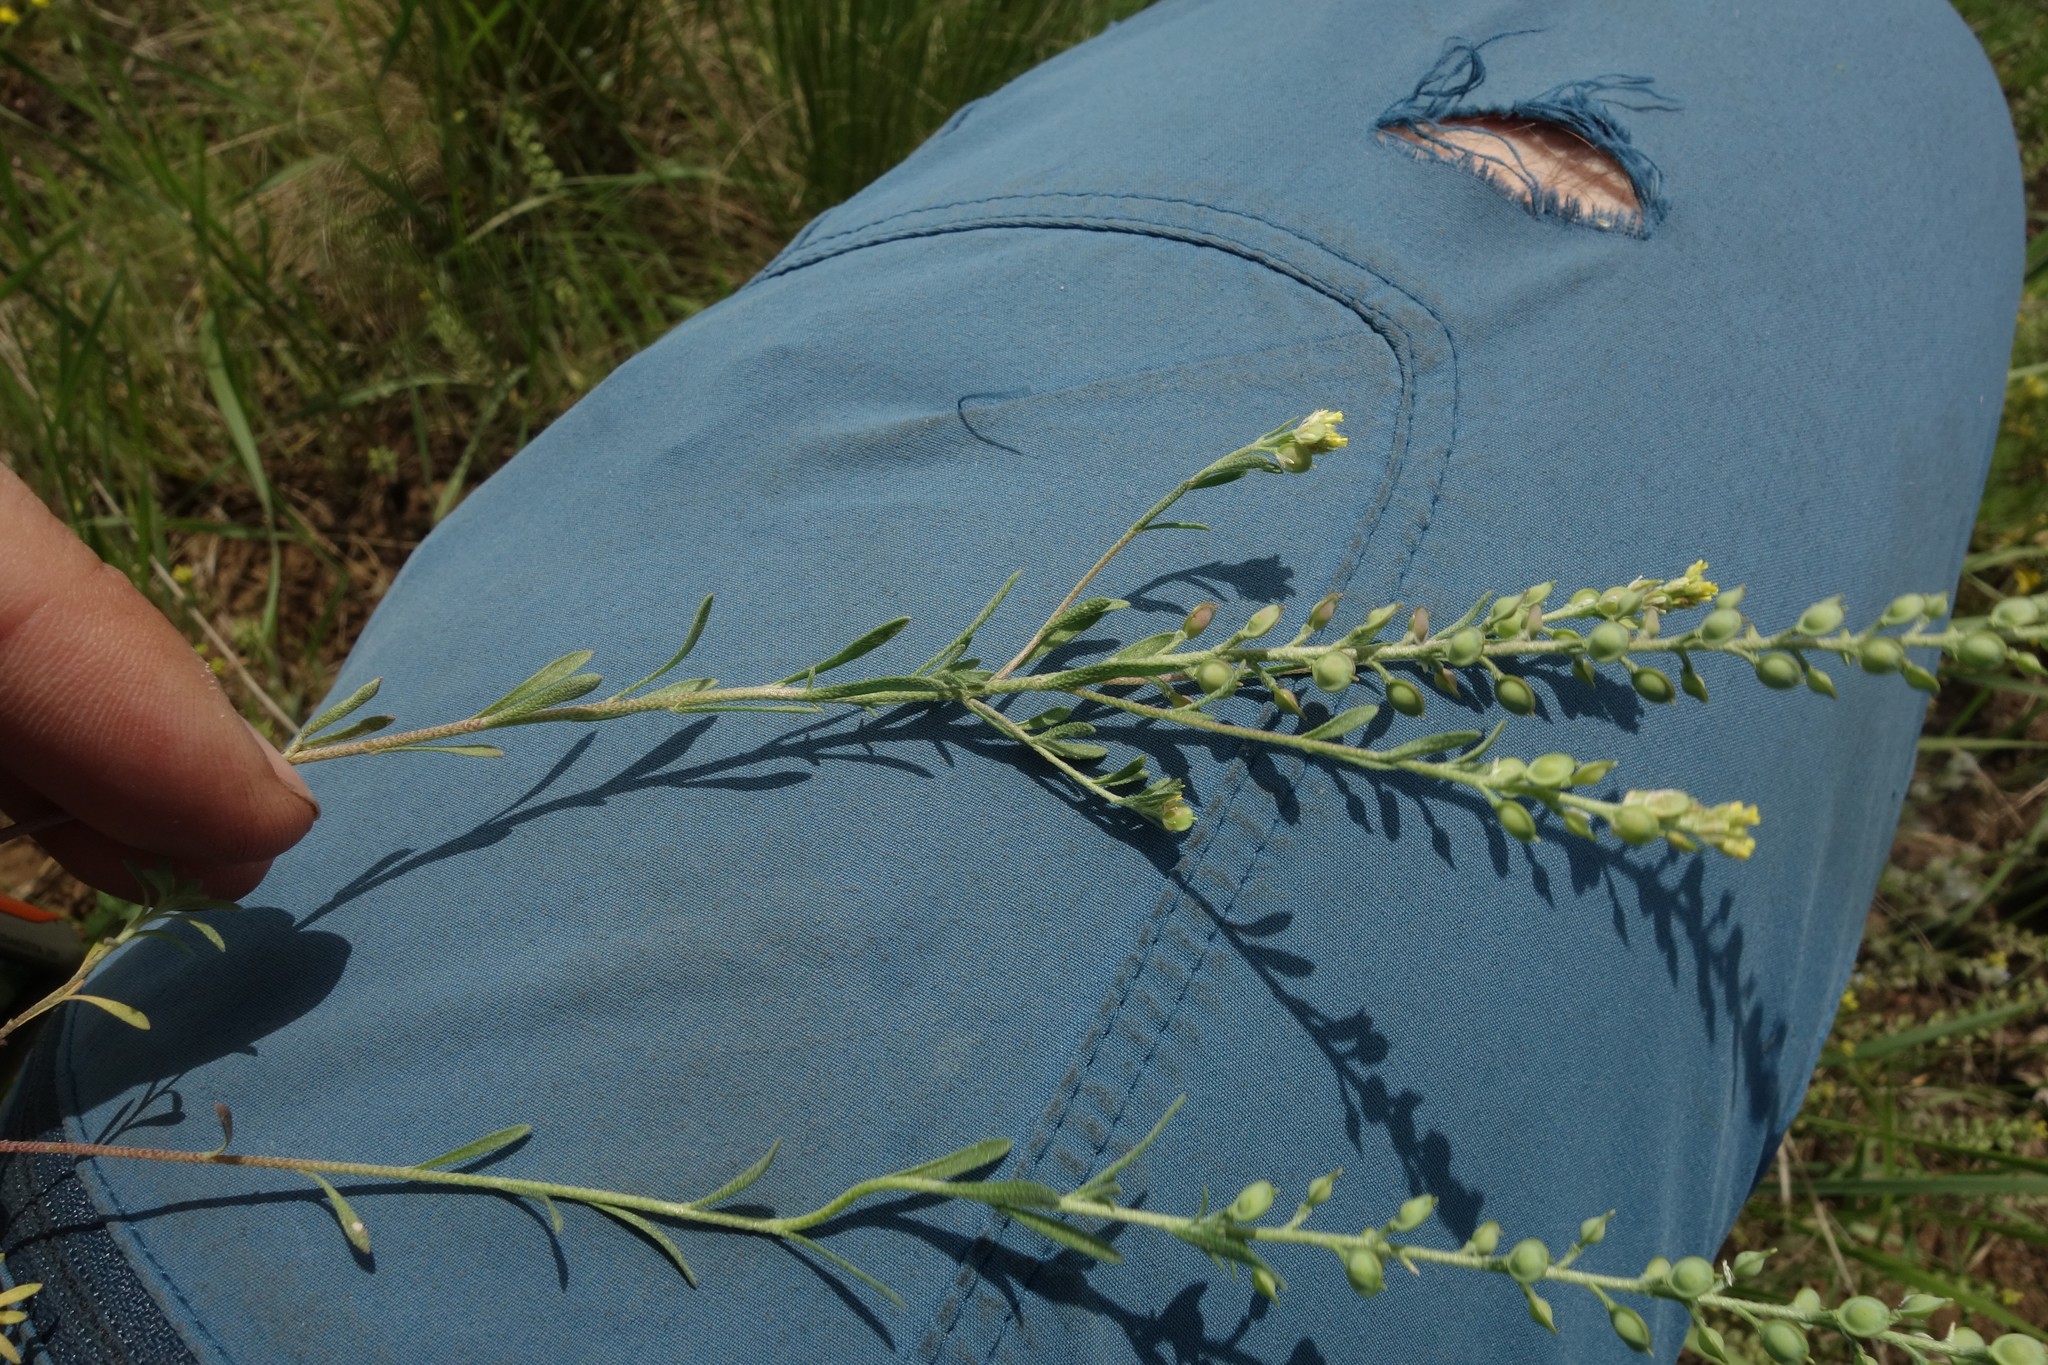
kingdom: Plantae
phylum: Tracheophyta
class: Magnoliopsida
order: Brassicales
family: Brassicaceae
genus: Alyssum
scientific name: Alyssum turkestanicum
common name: Desert alyssum
